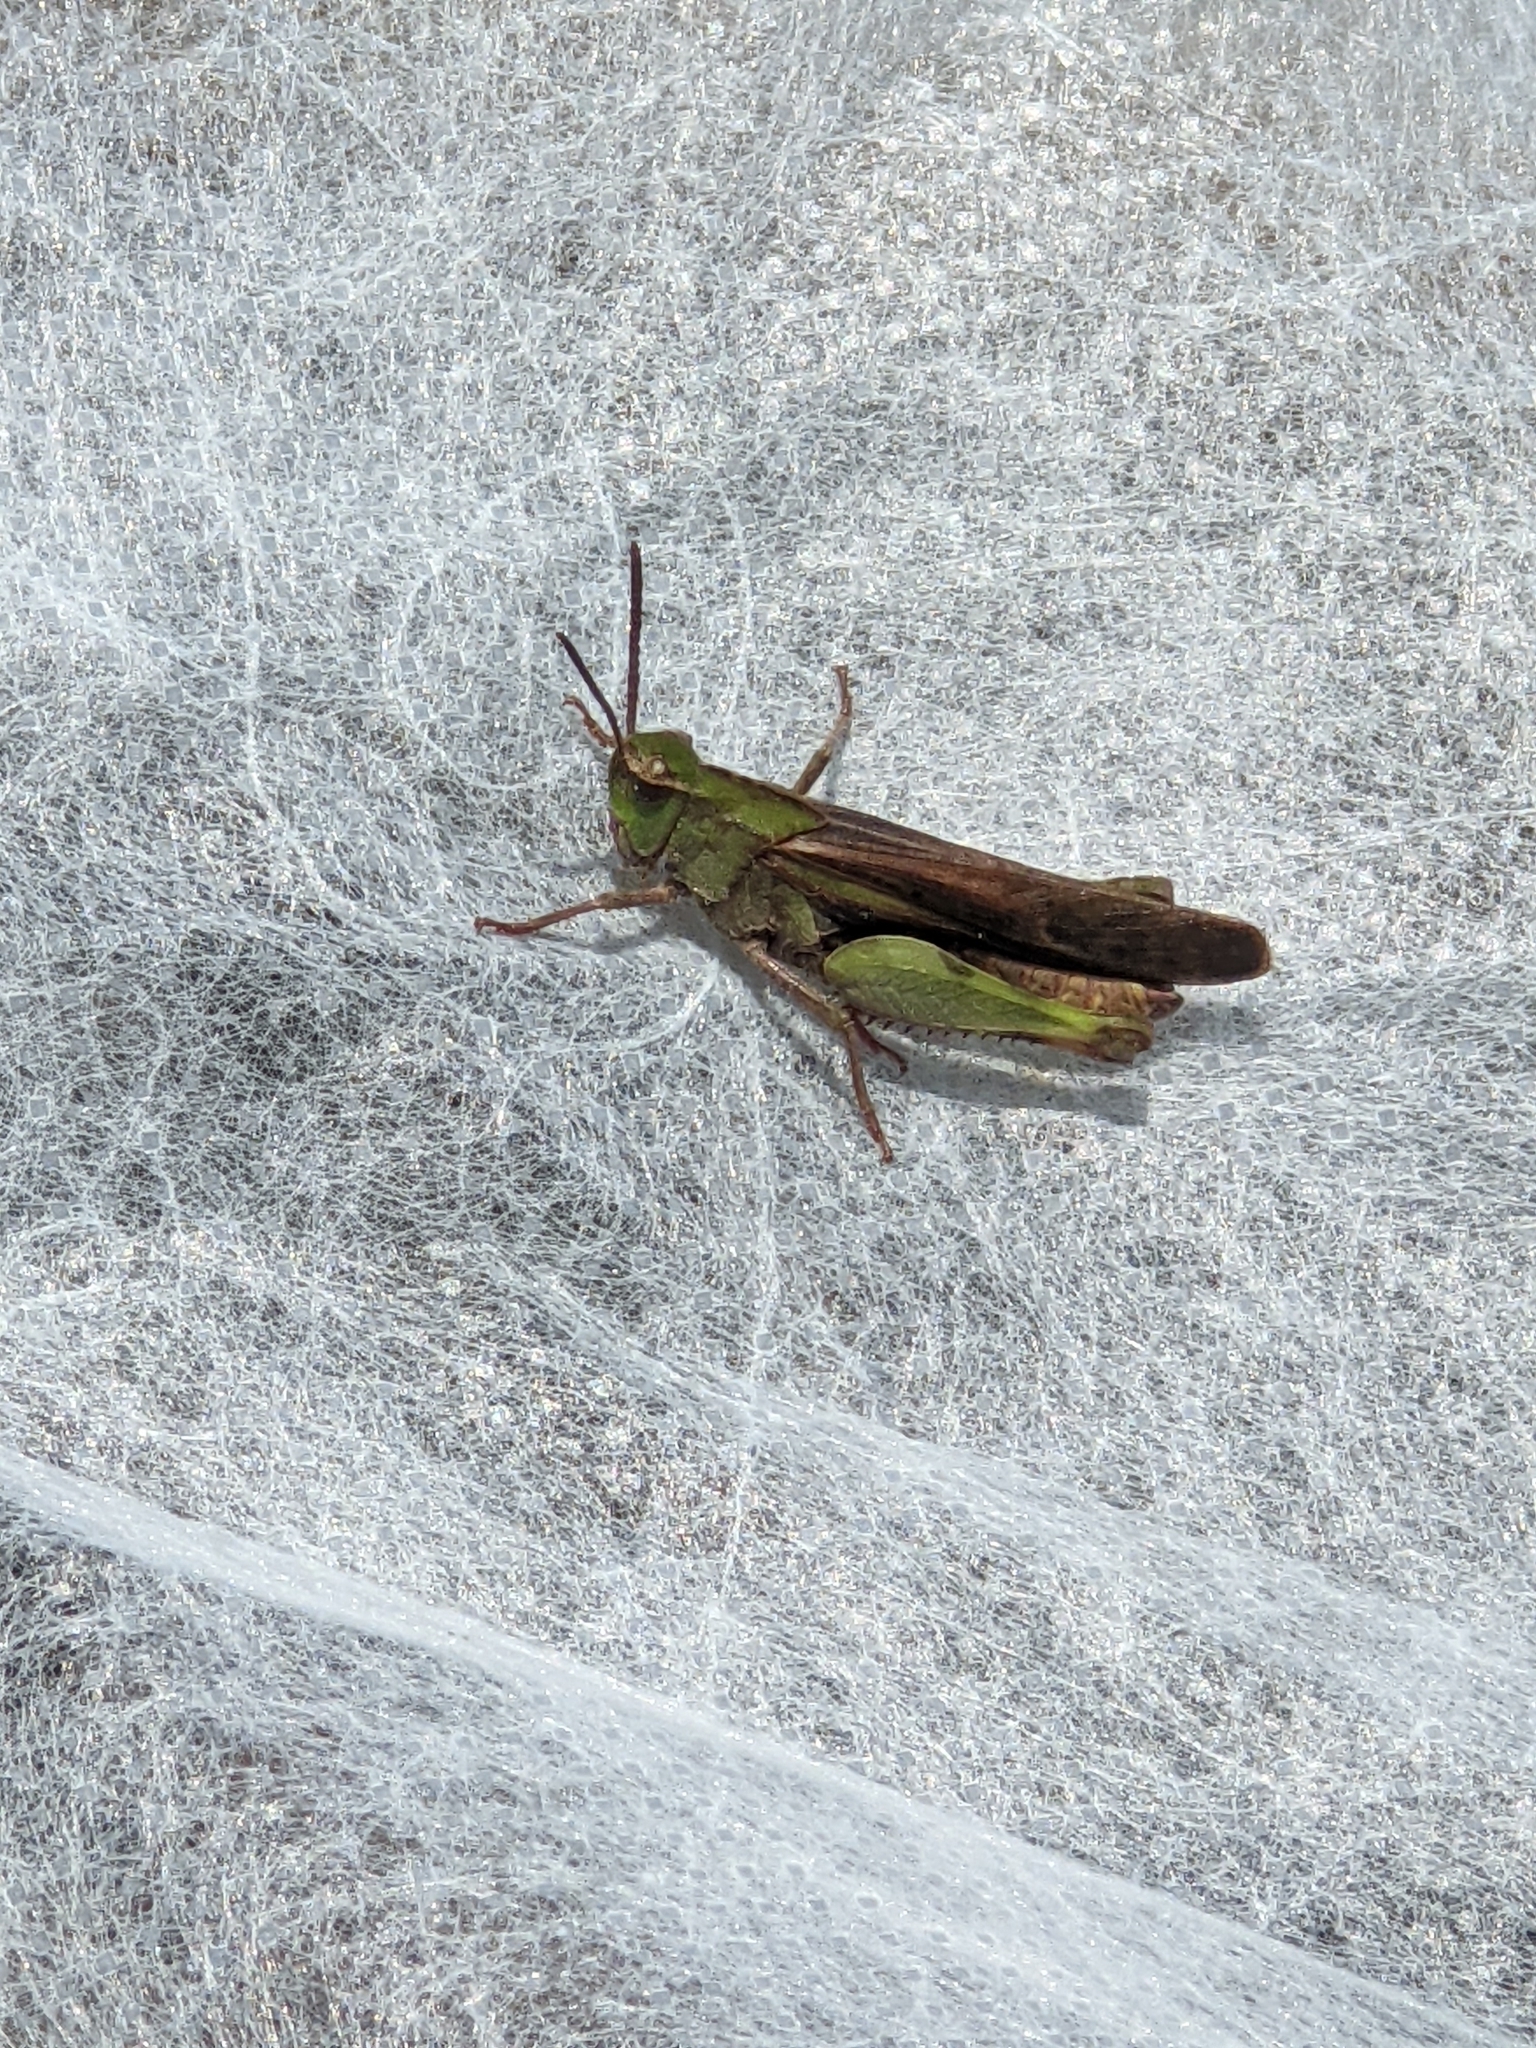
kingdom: Animalia
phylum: Arthropoda
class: Insecta
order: Orthoptera
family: Acrididae
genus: Chortophaga
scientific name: Chortophaga viridifasciata
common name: Green-striped grasshopper
